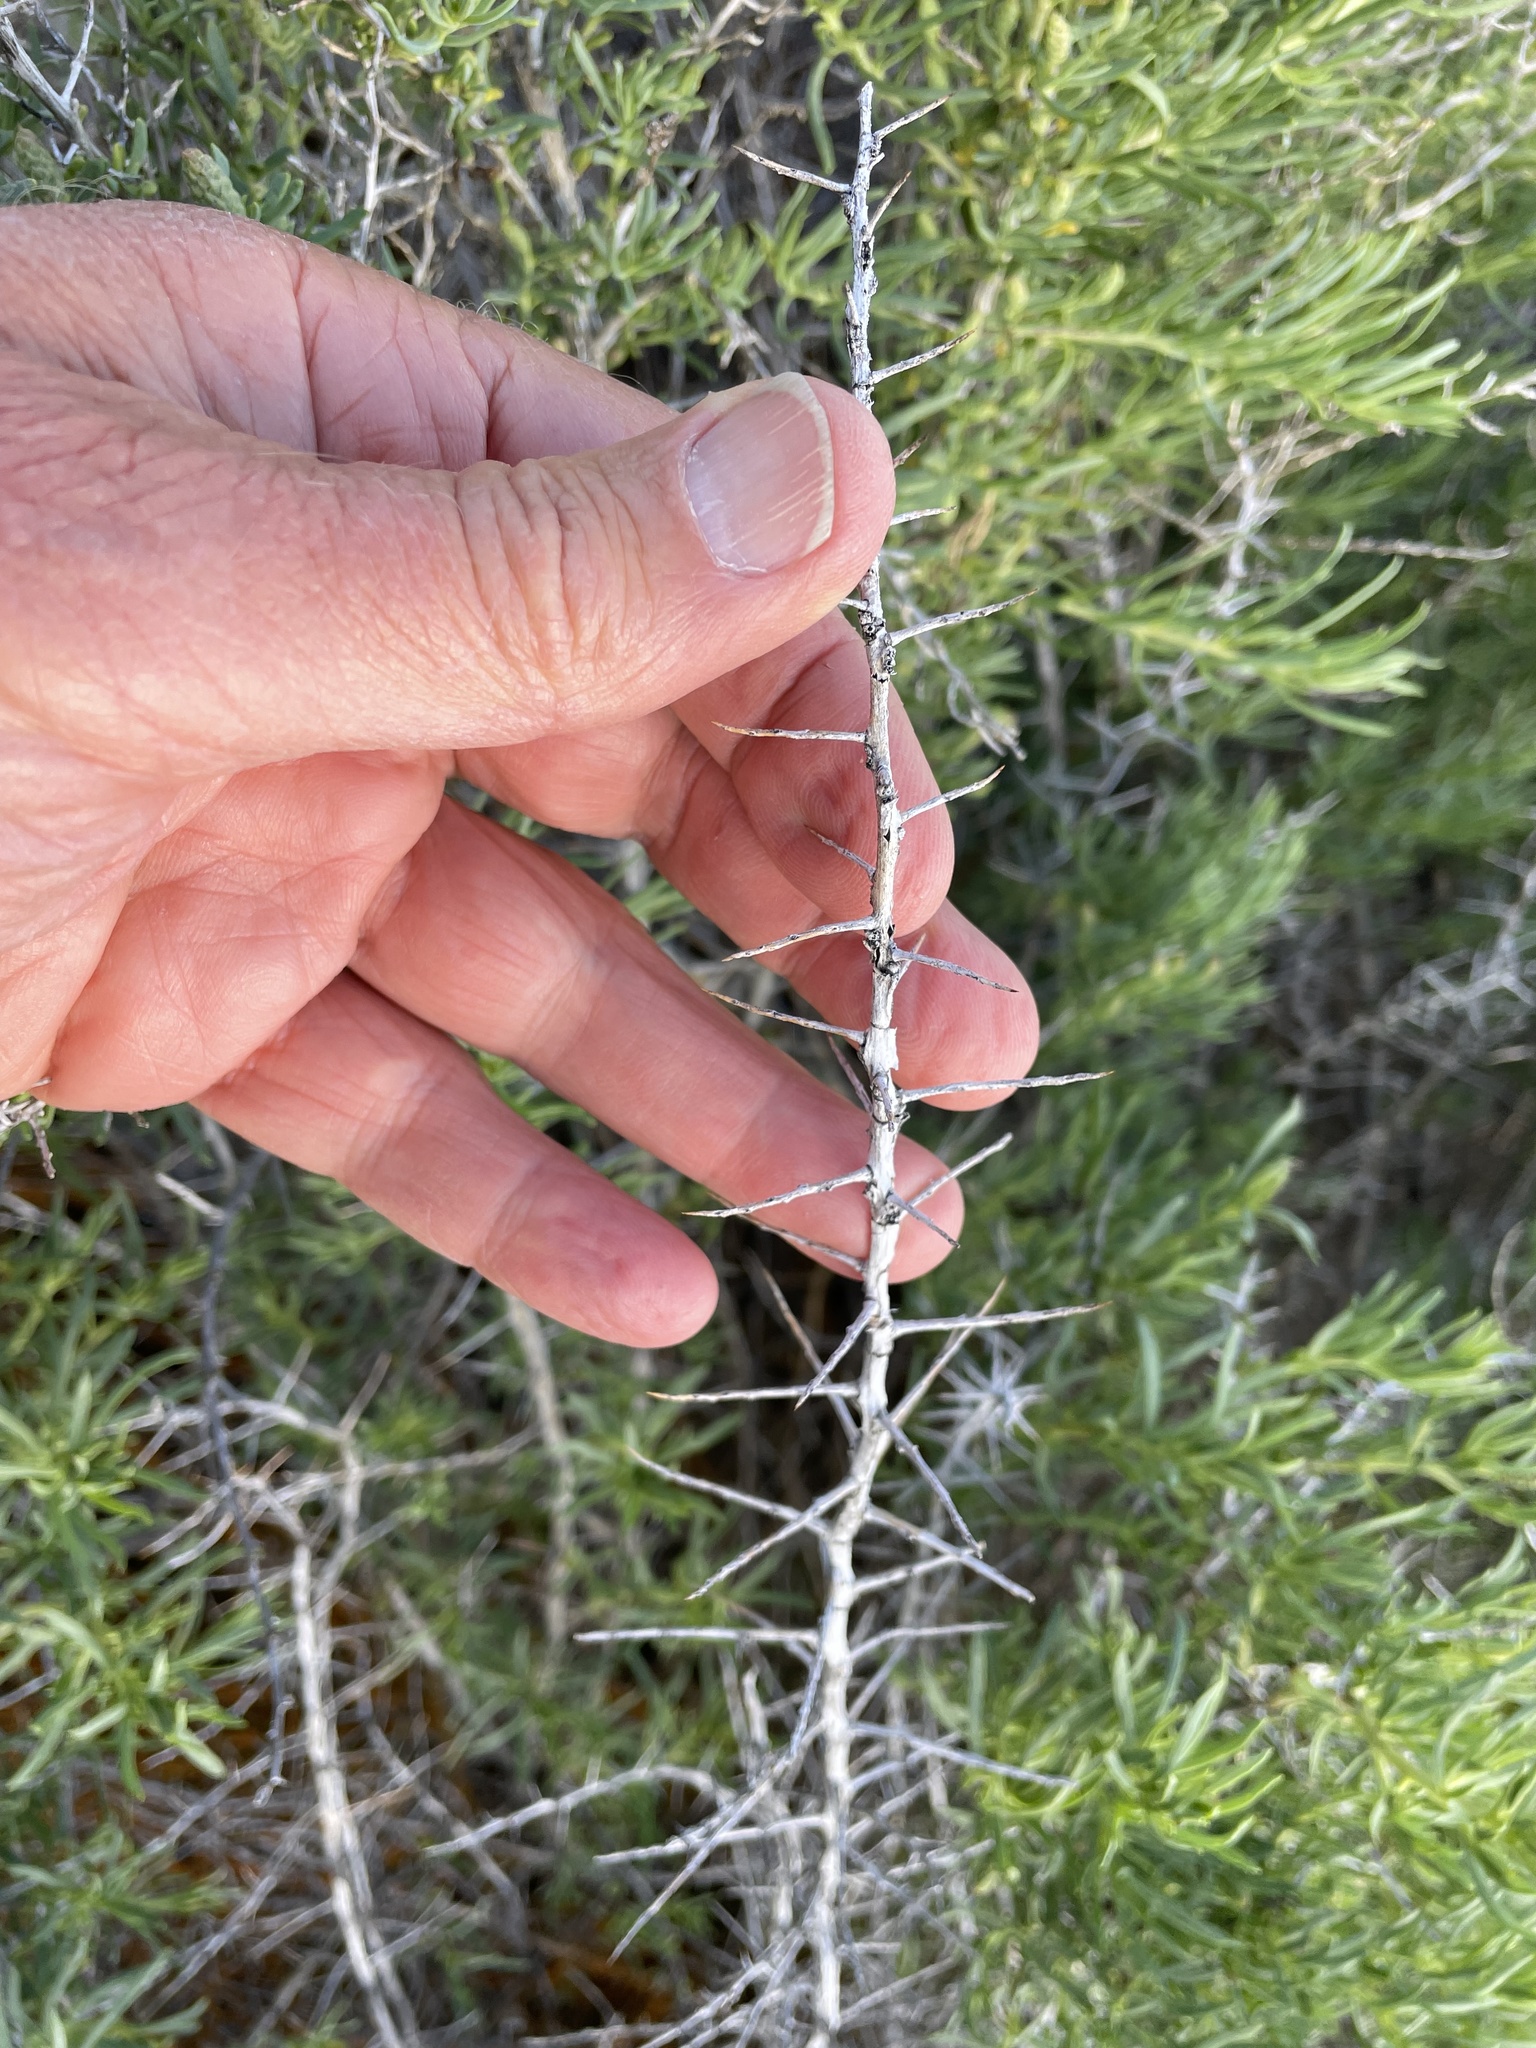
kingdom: Plantae
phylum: Tracheophyta
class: Magnoliopsida
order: Caryophyllales
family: Sarcobataceae
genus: Sarcobatus
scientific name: Sarcobatus vermiculatus
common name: Greasewood
